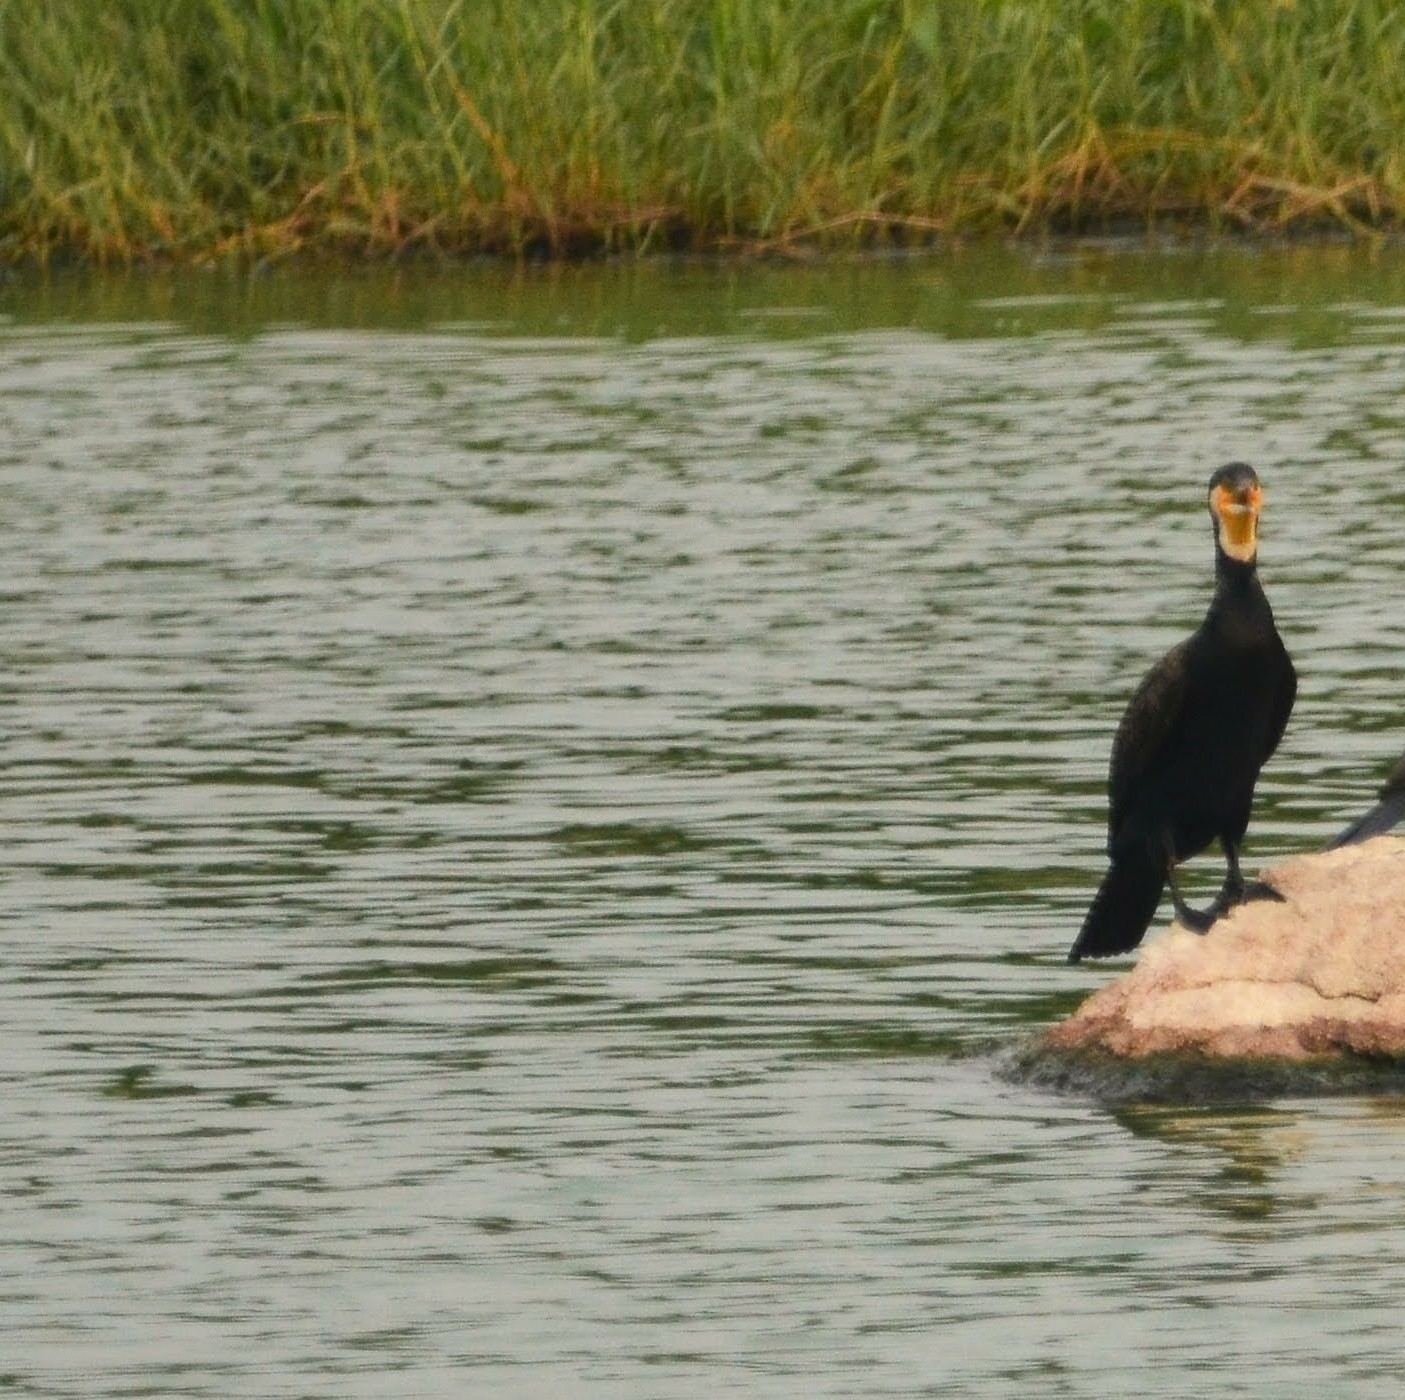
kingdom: Animalia
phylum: Chordata
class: Aves
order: Suliformes
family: Phalacrocoracidae
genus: Phalacrocorax
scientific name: Phalacrocorax carbo
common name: Great cormorant
